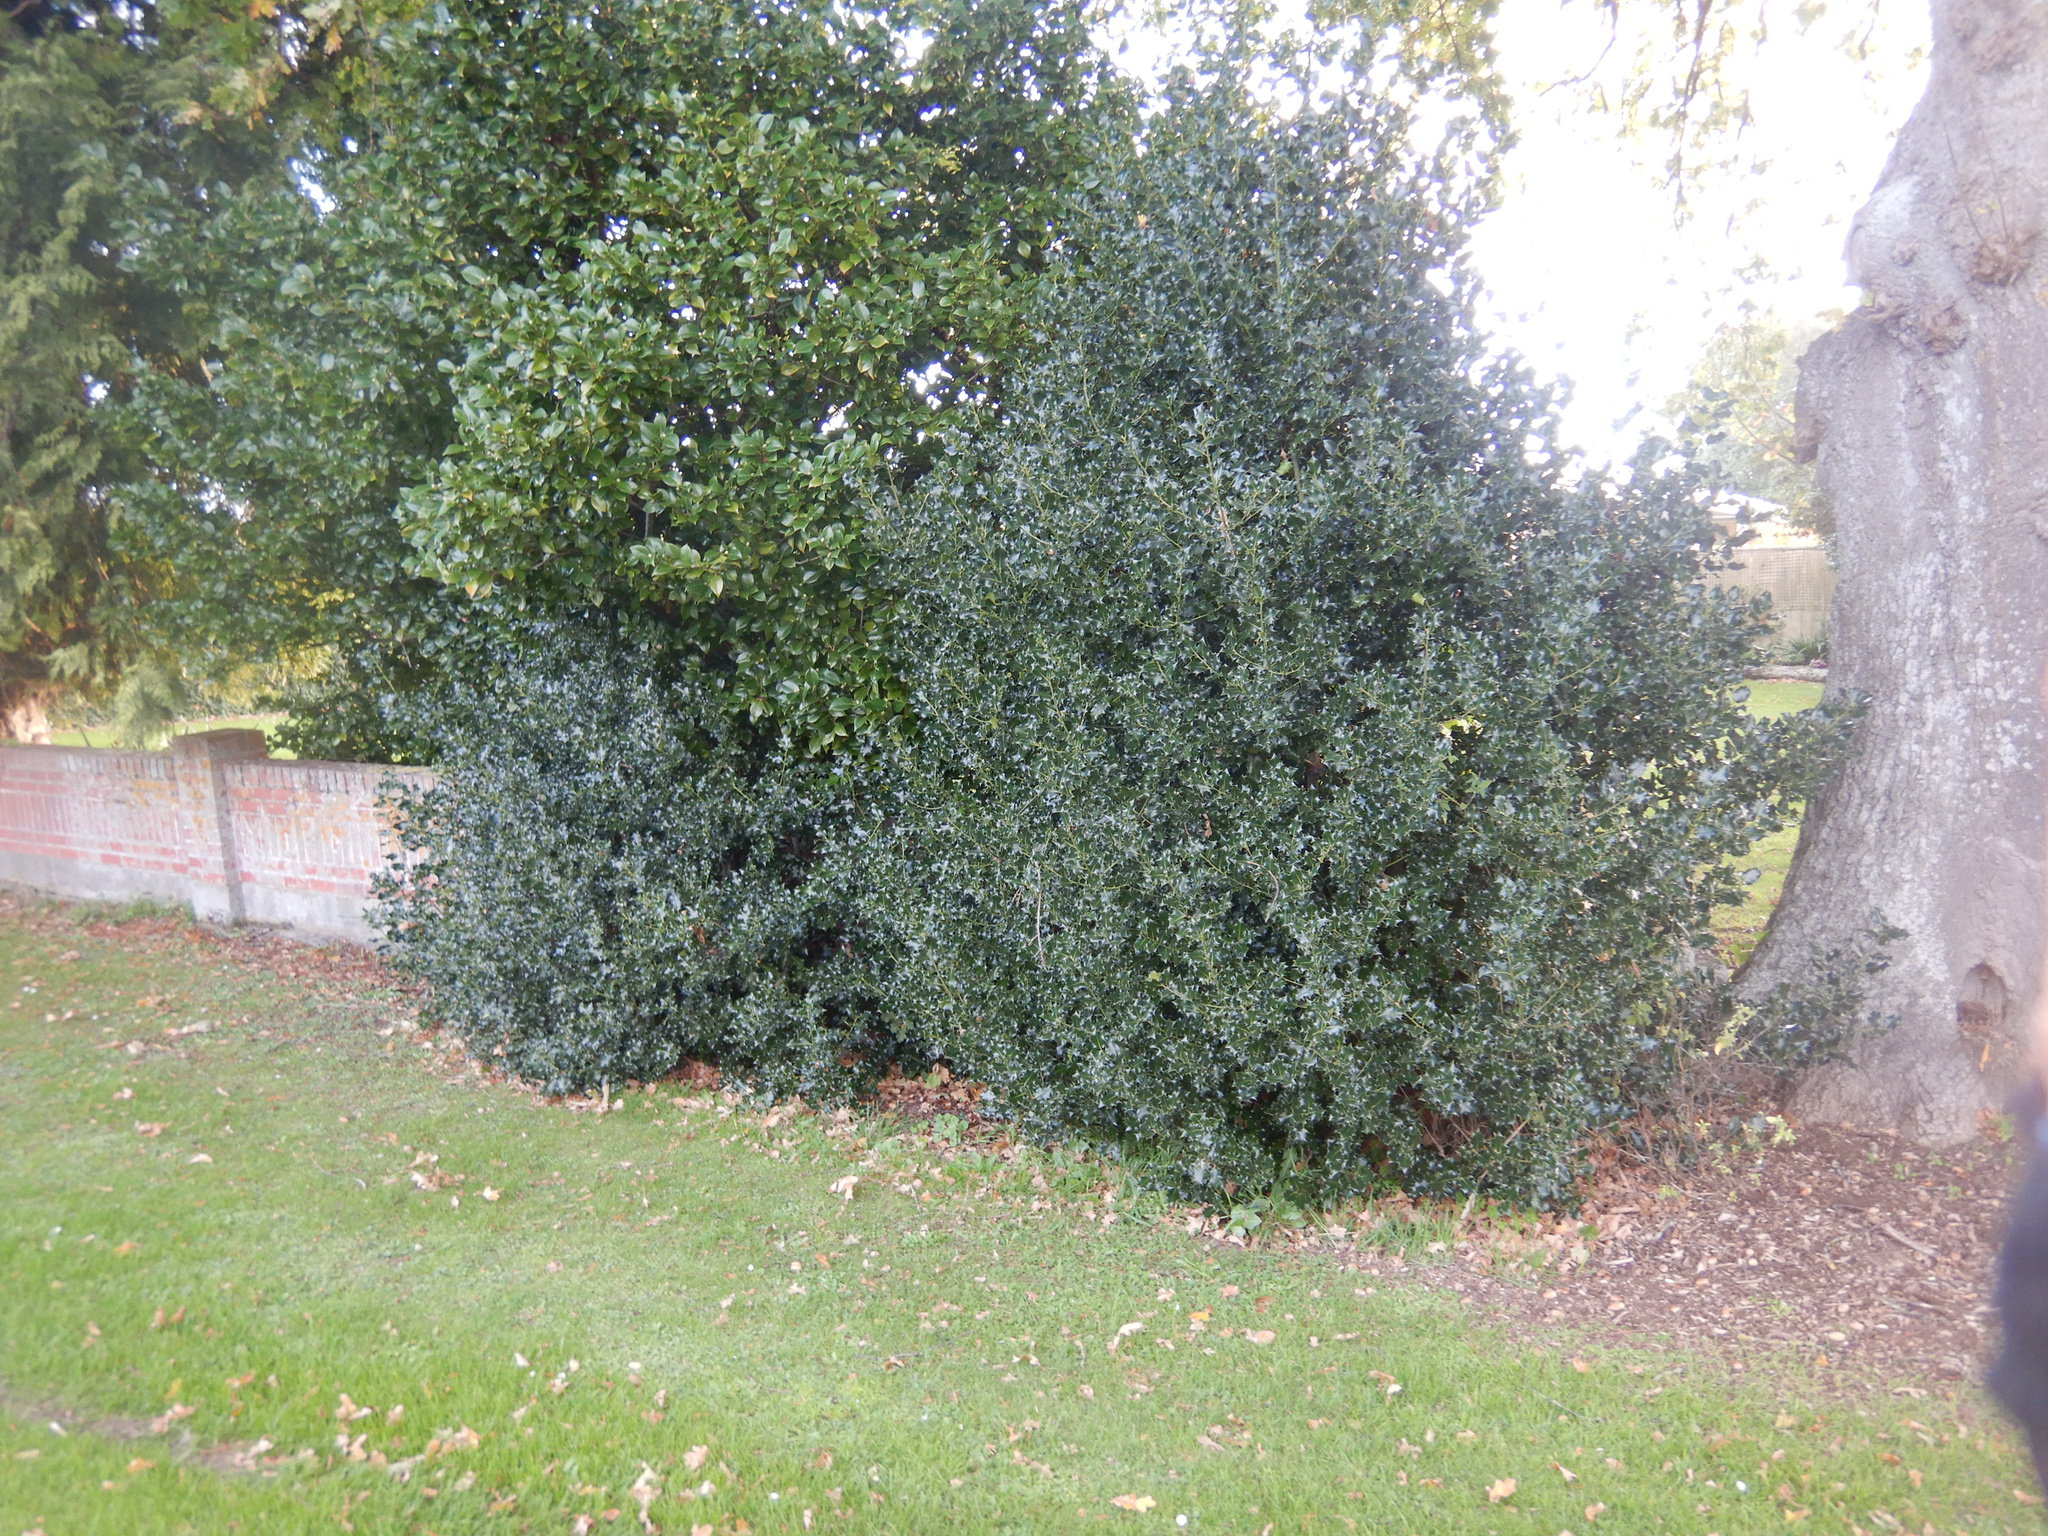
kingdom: Plantae
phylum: Tracheophyta
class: Magnoliopsida
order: Aquifoliales
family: Aquifoliaceae
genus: Ilex
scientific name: Ilex aquifolium
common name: English holly
